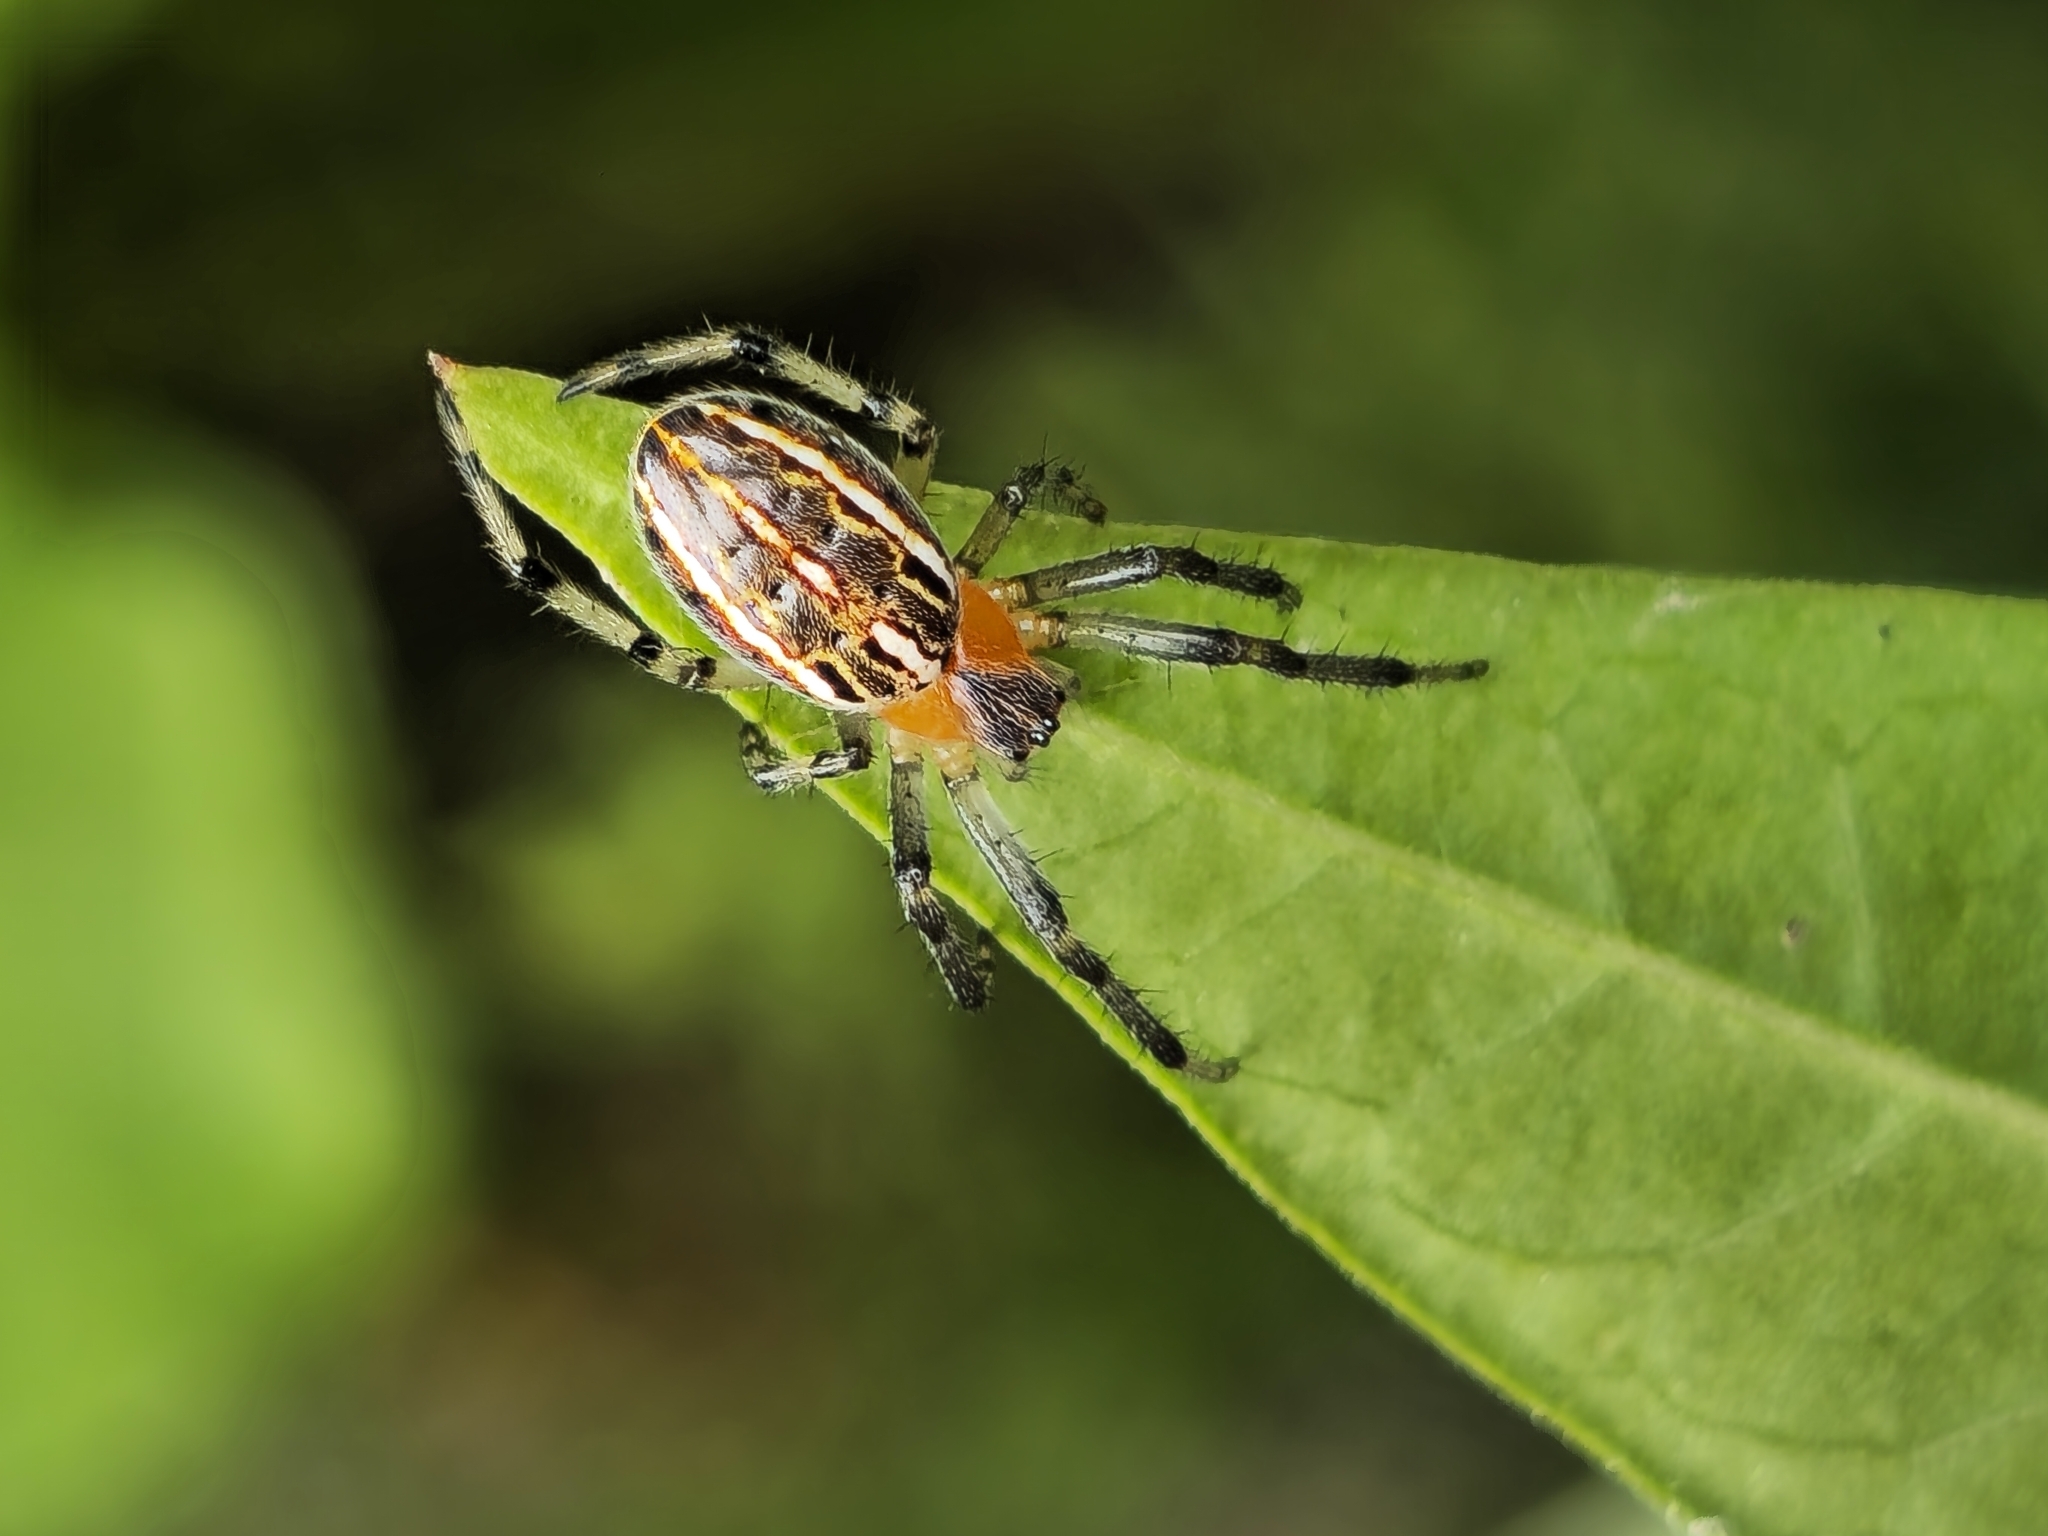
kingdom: Animalia
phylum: Arthropoda
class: Arachnida
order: Araneae
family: Araneidae
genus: Alpaida
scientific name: Alpaida veniliae
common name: Orb weavers
